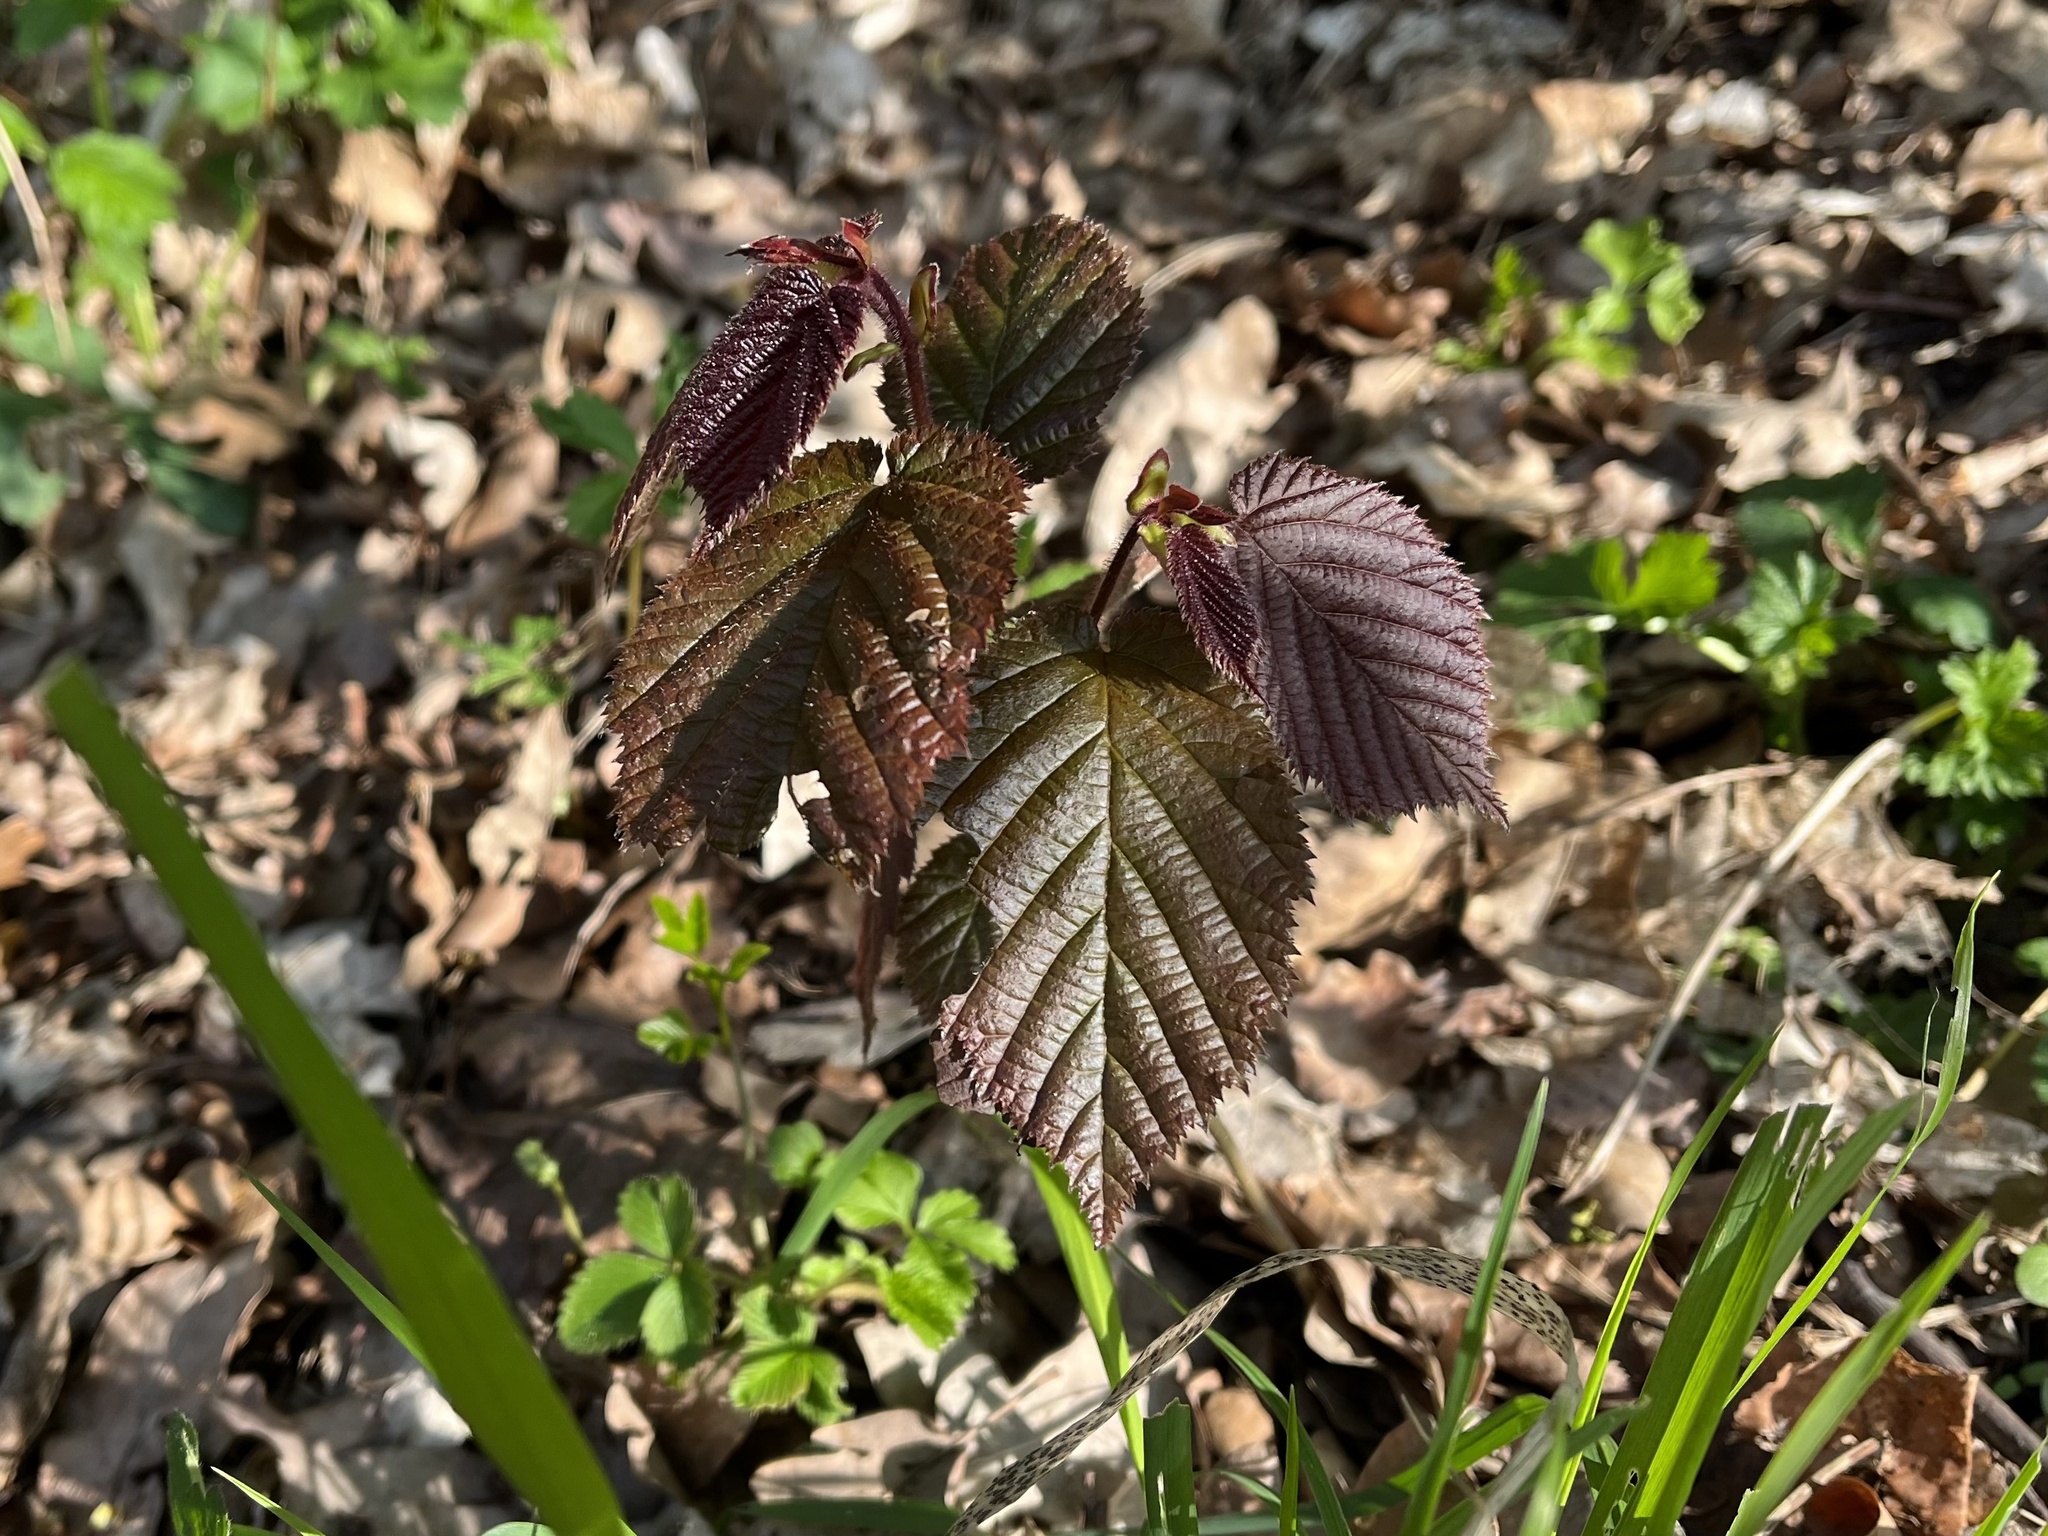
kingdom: Plantae
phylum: Tracheophyta
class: Magnoliopsida
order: Fagales
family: Betulaceae
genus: Corylus
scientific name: Corylus avellana
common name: European hazel
